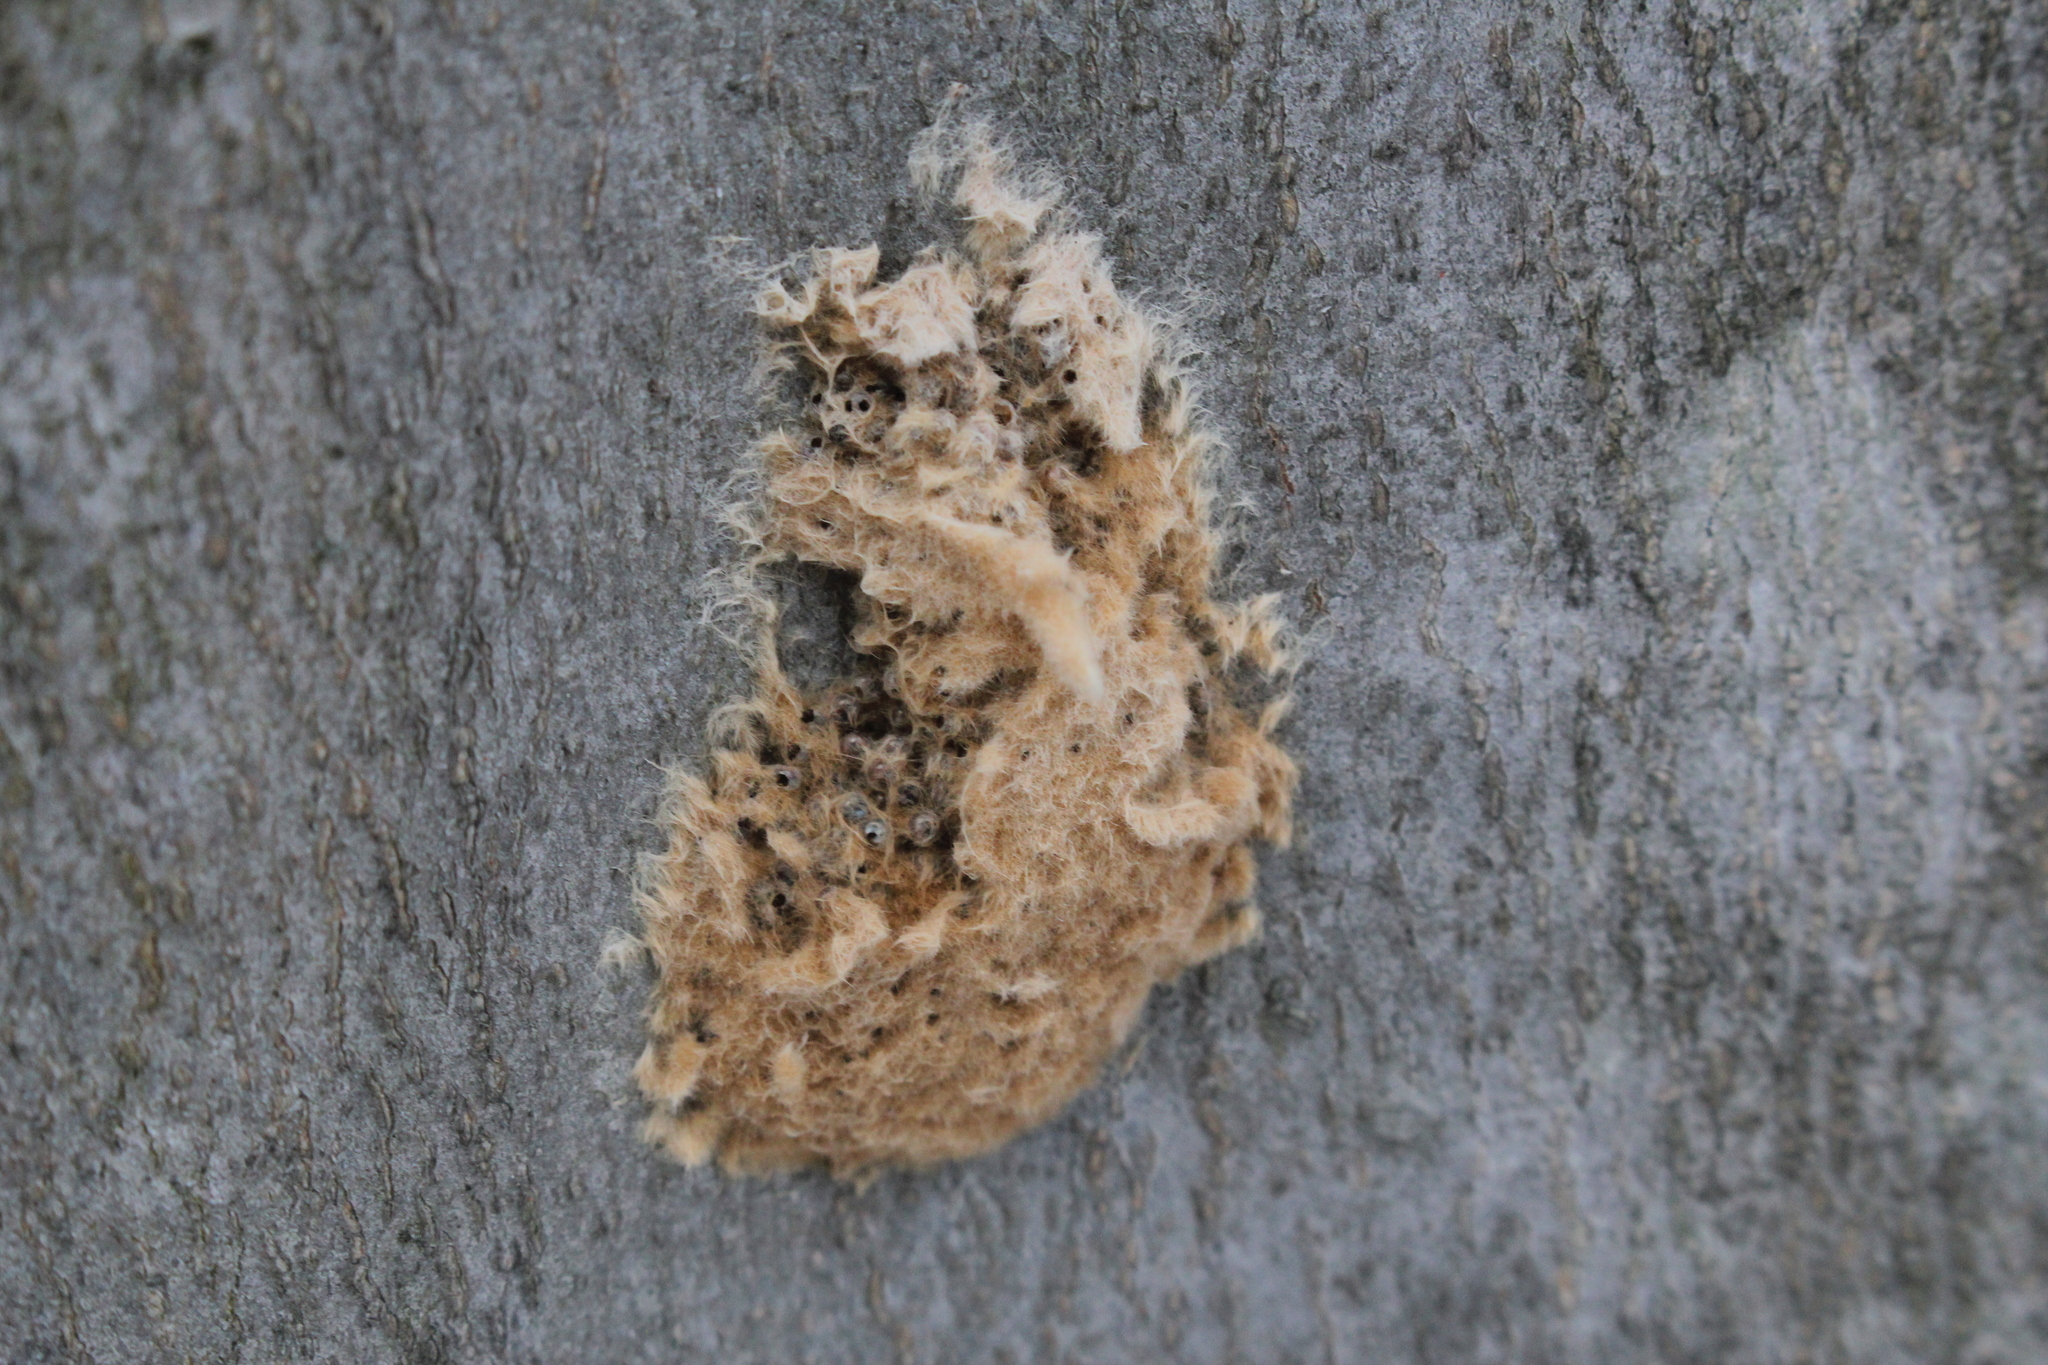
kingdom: Animalia
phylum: Arthropoda
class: Insecta
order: Lepidoptera
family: Erebidae
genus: Lymantria
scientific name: Lymantria dispar
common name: Gypsy moth
